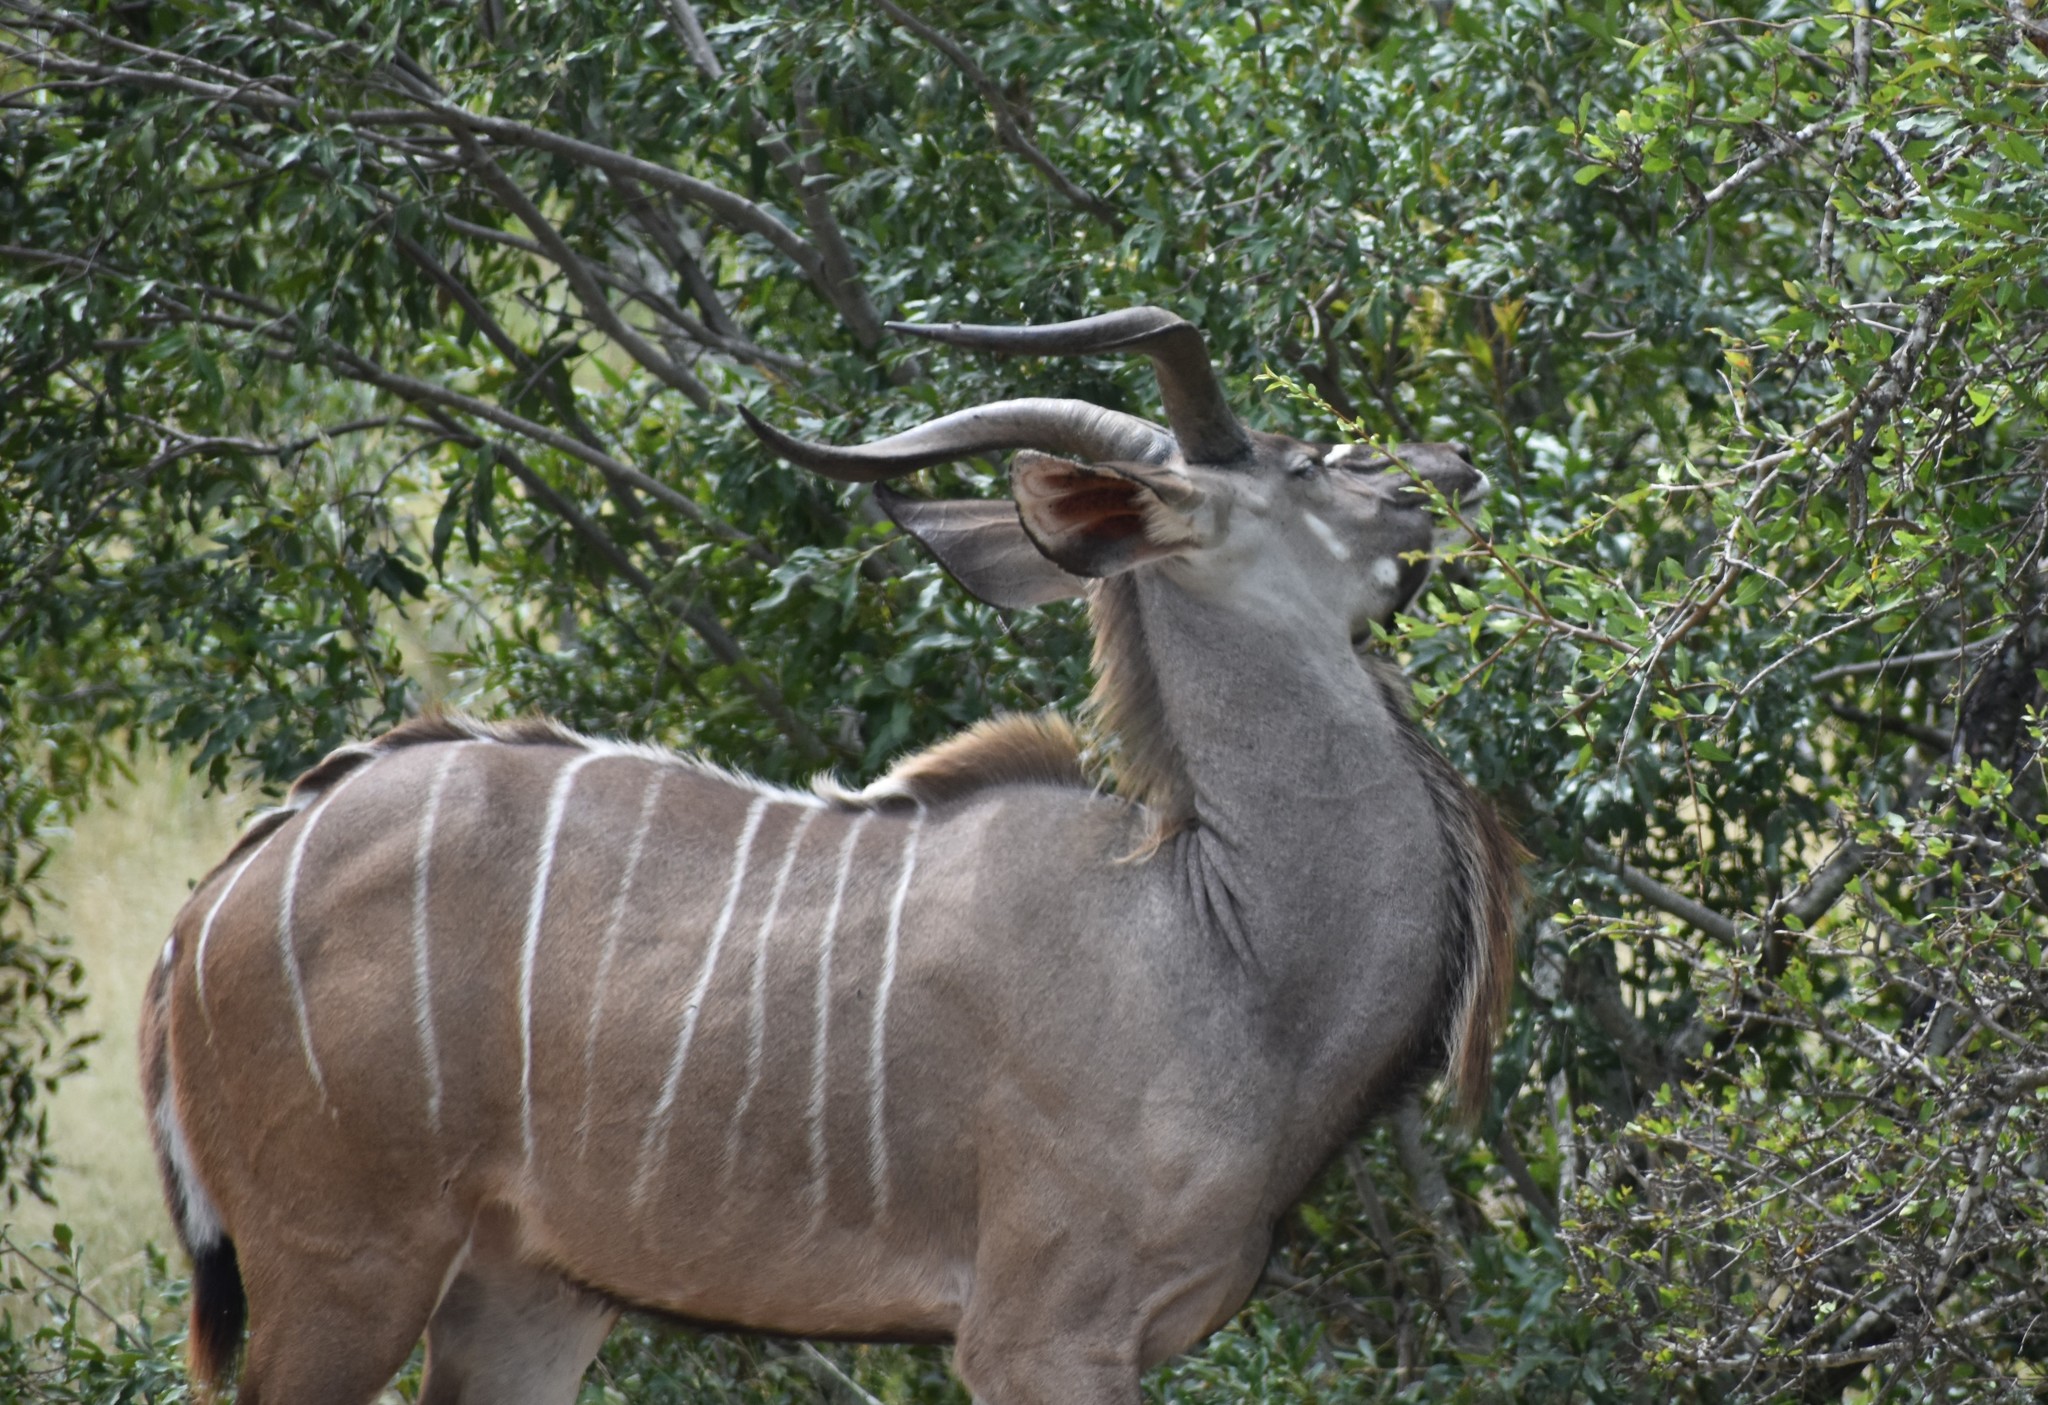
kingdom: Animalia
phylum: Chordata
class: Mammalia
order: Artiodactyla
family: Bovidae
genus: Tragelaphus
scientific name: Tragelaphus strepsiceros
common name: Greater kudu
